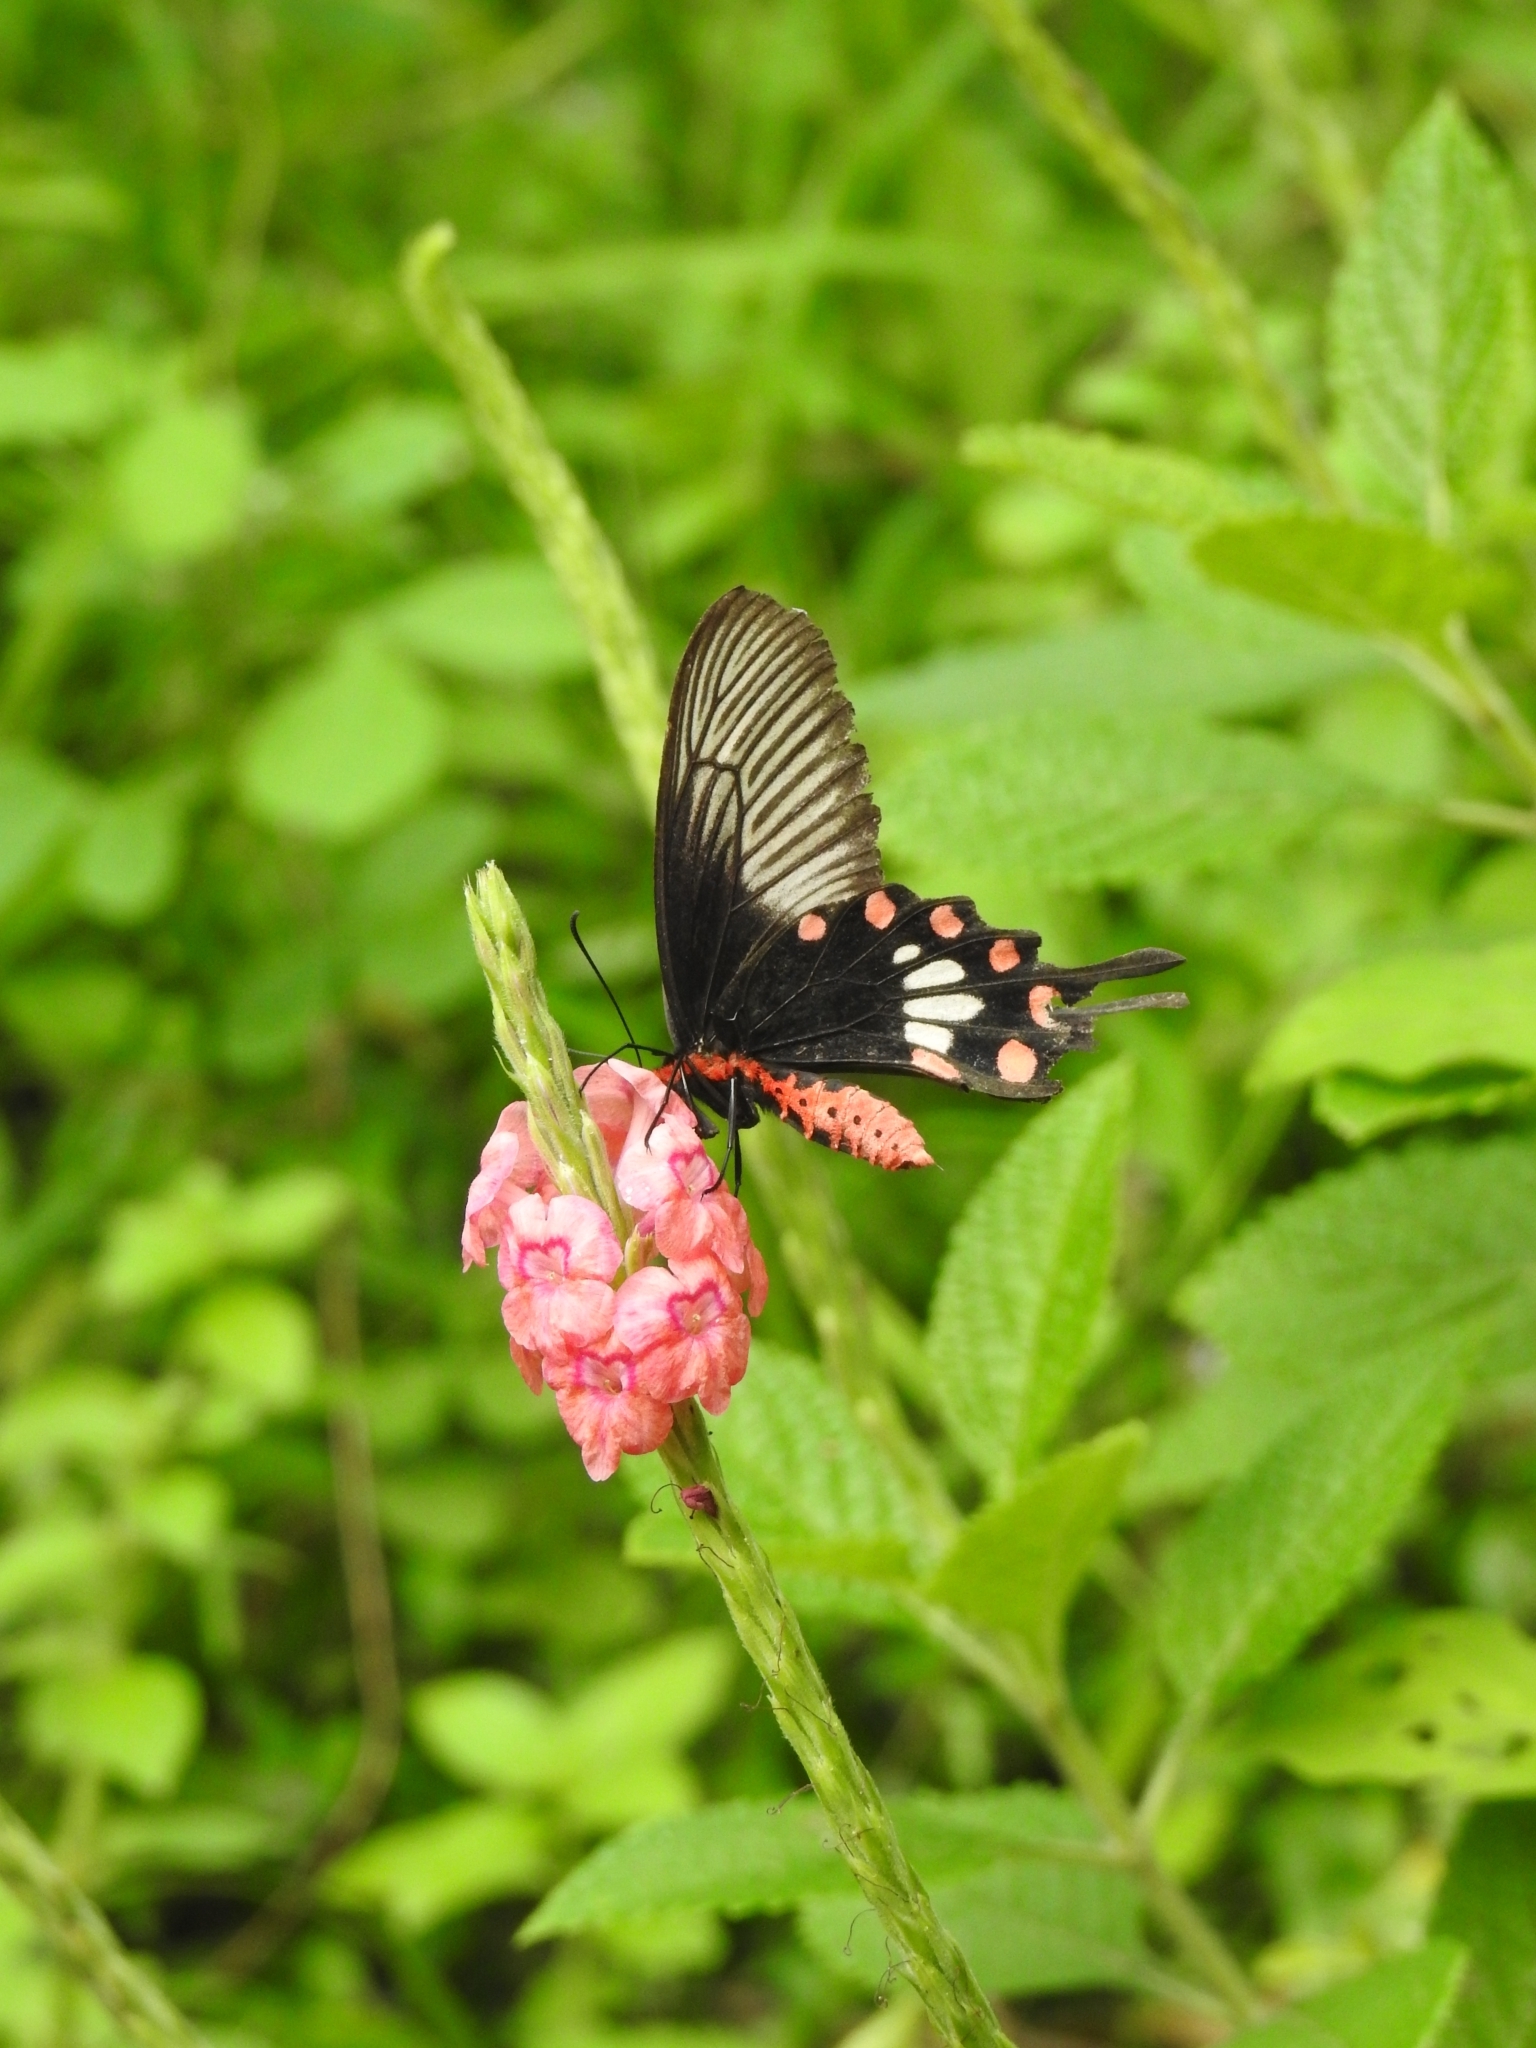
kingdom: Animalia
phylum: Arthropoda
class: Insecta
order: Lepidoptera
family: Papilionidae
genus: Pachliopta
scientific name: Pachliopta aristolochiae
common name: Common rose
